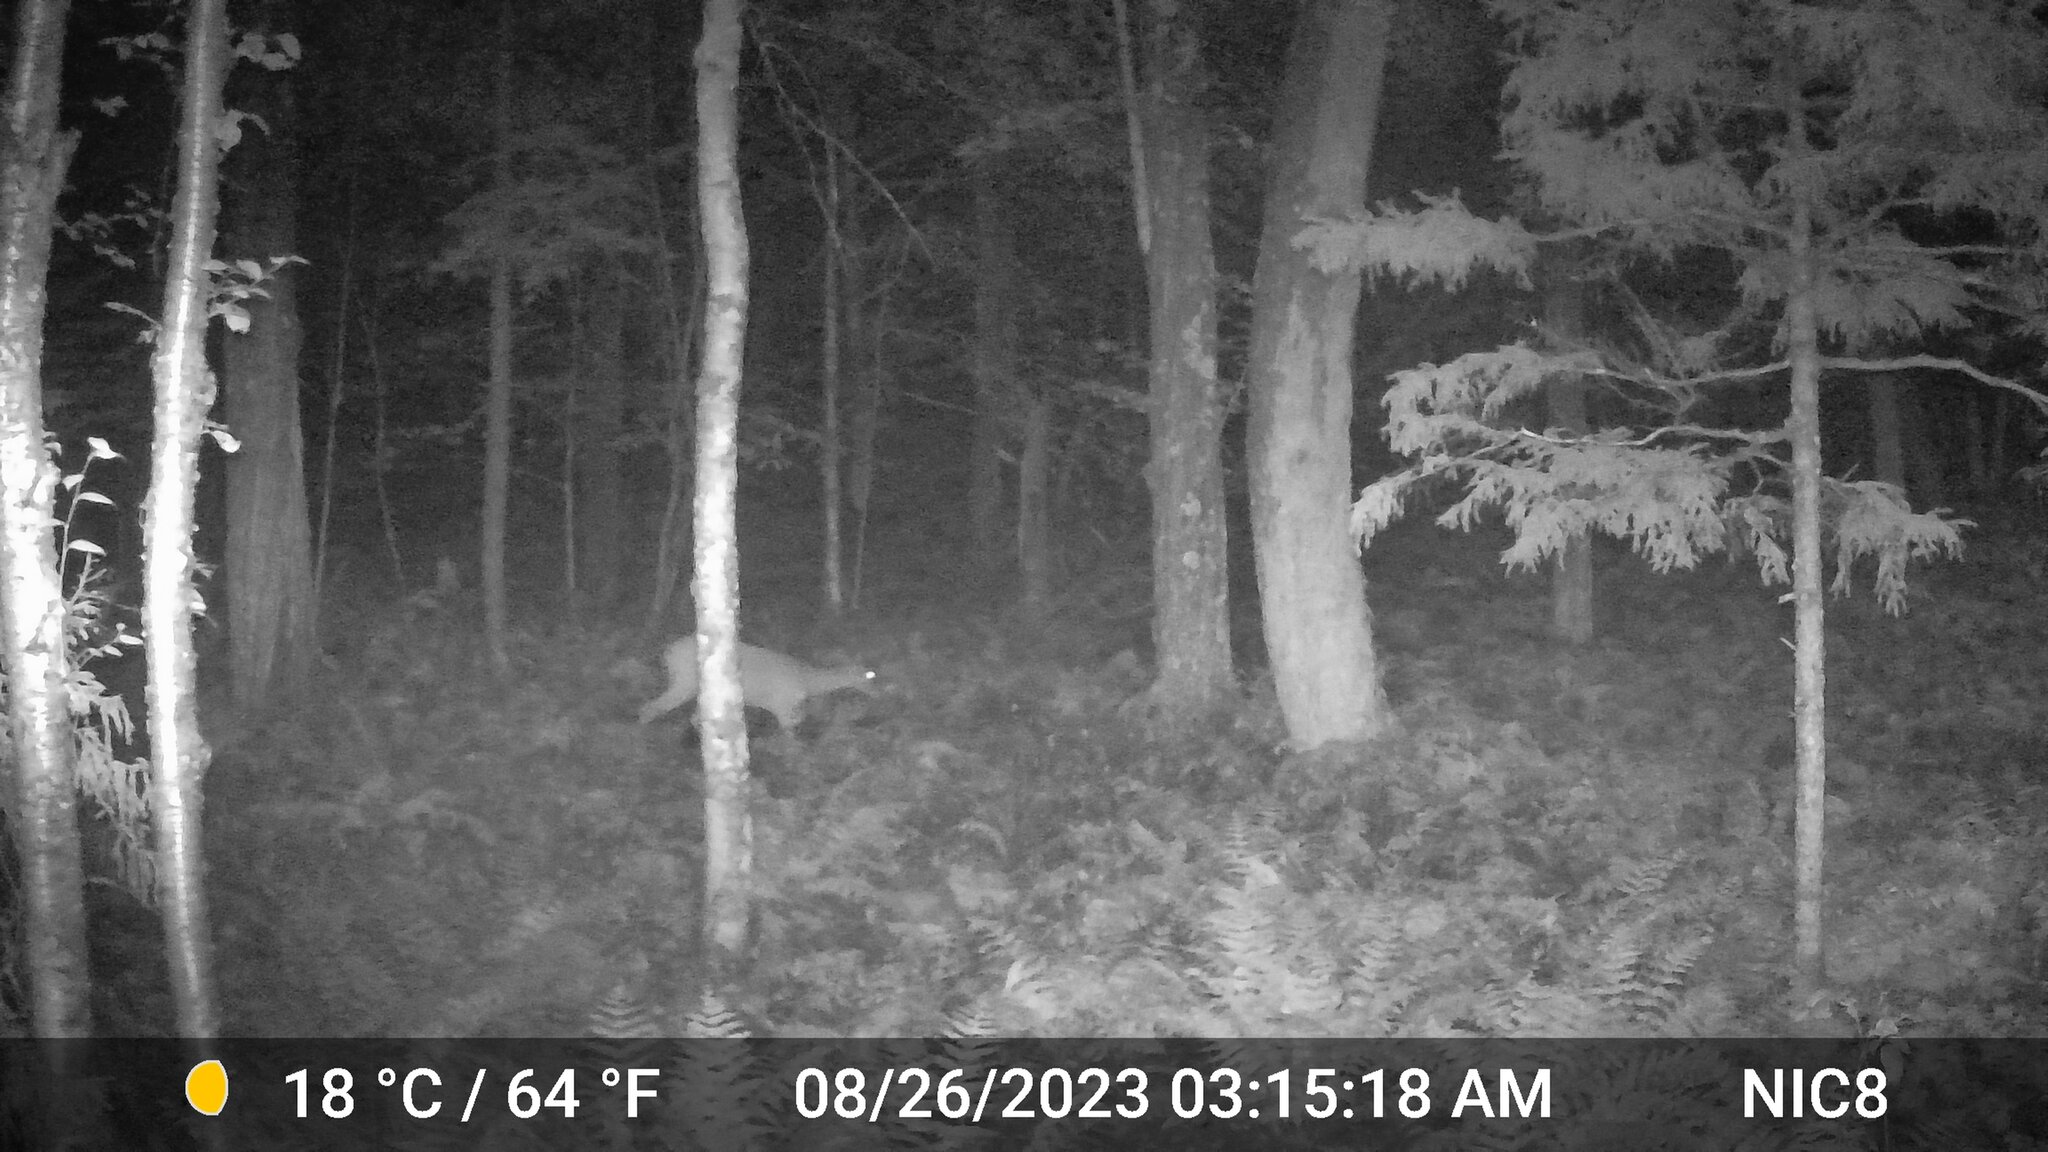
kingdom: Animalia
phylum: Chordata
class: Mammalia
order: Artiodactyla
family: Cervidae
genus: Odocoileus
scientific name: Odocoileus virginianus
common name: White-tailed deer
